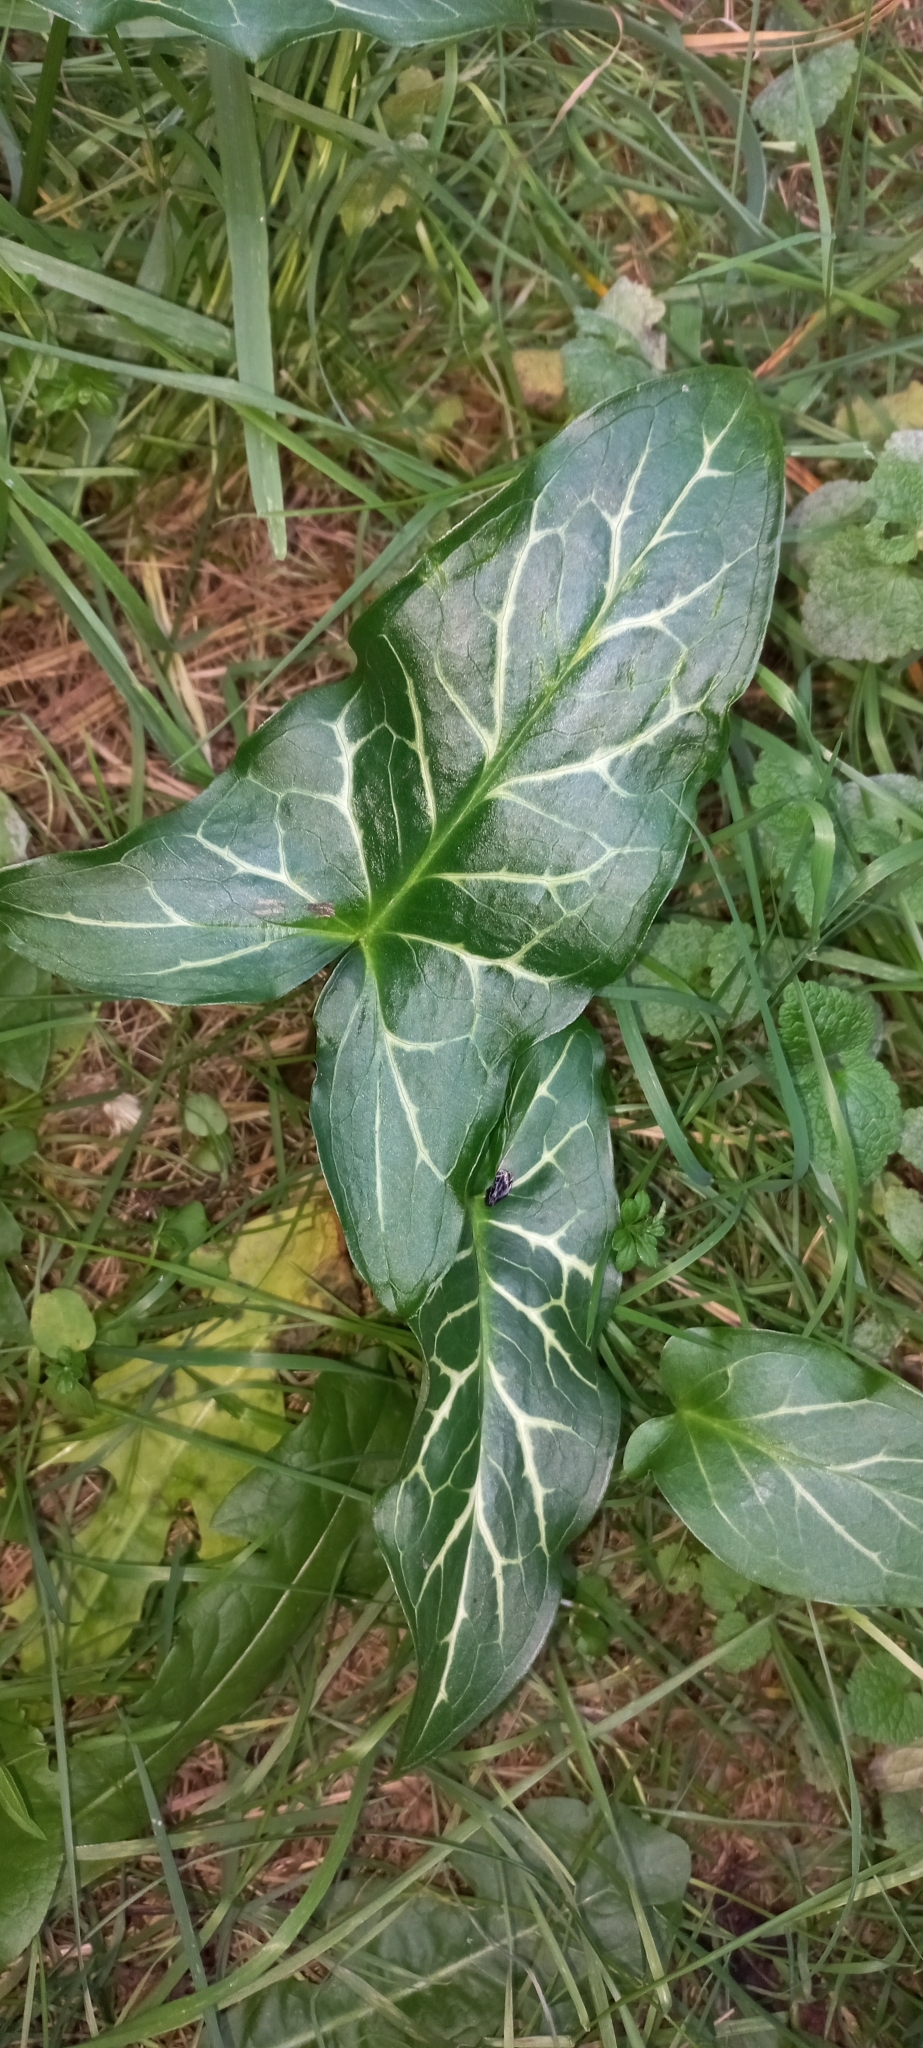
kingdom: Plantae
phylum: Tracheophyta
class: Liliopsida
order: Alismatales
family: Araceae
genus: Arum
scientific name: Arum italicum
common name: Italian lords-and-ladies
